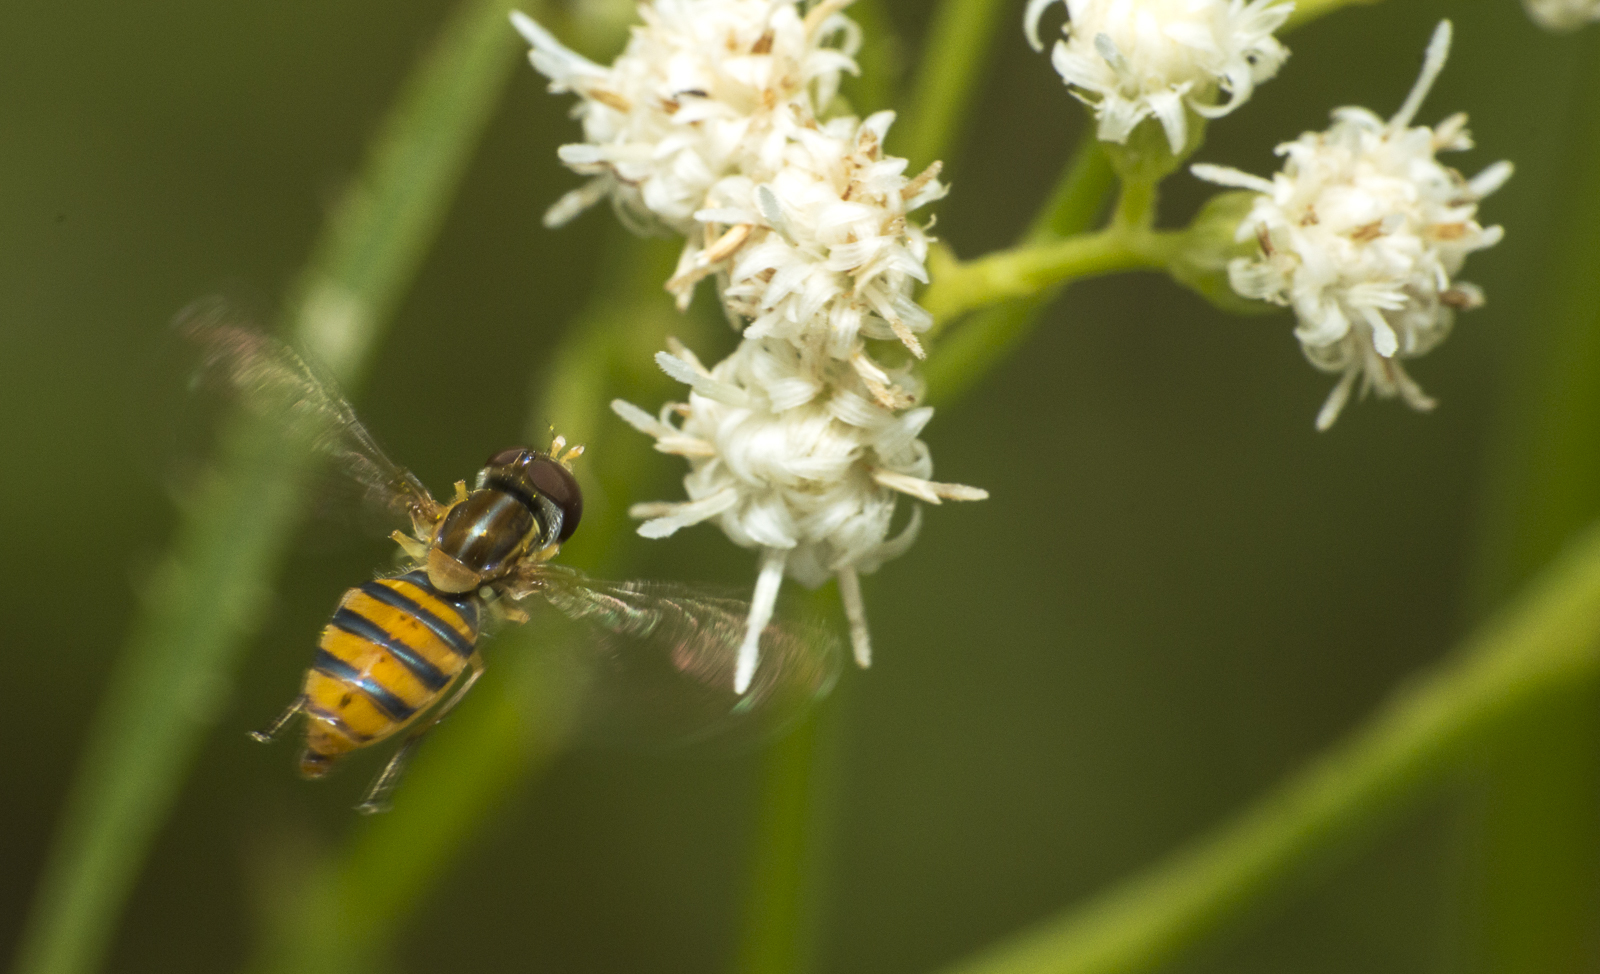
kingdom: Animalia
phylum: Arthropoda
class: Insecta
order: Diptera
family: Syrphidae
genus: Toxomerus
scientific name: Toxomerus
